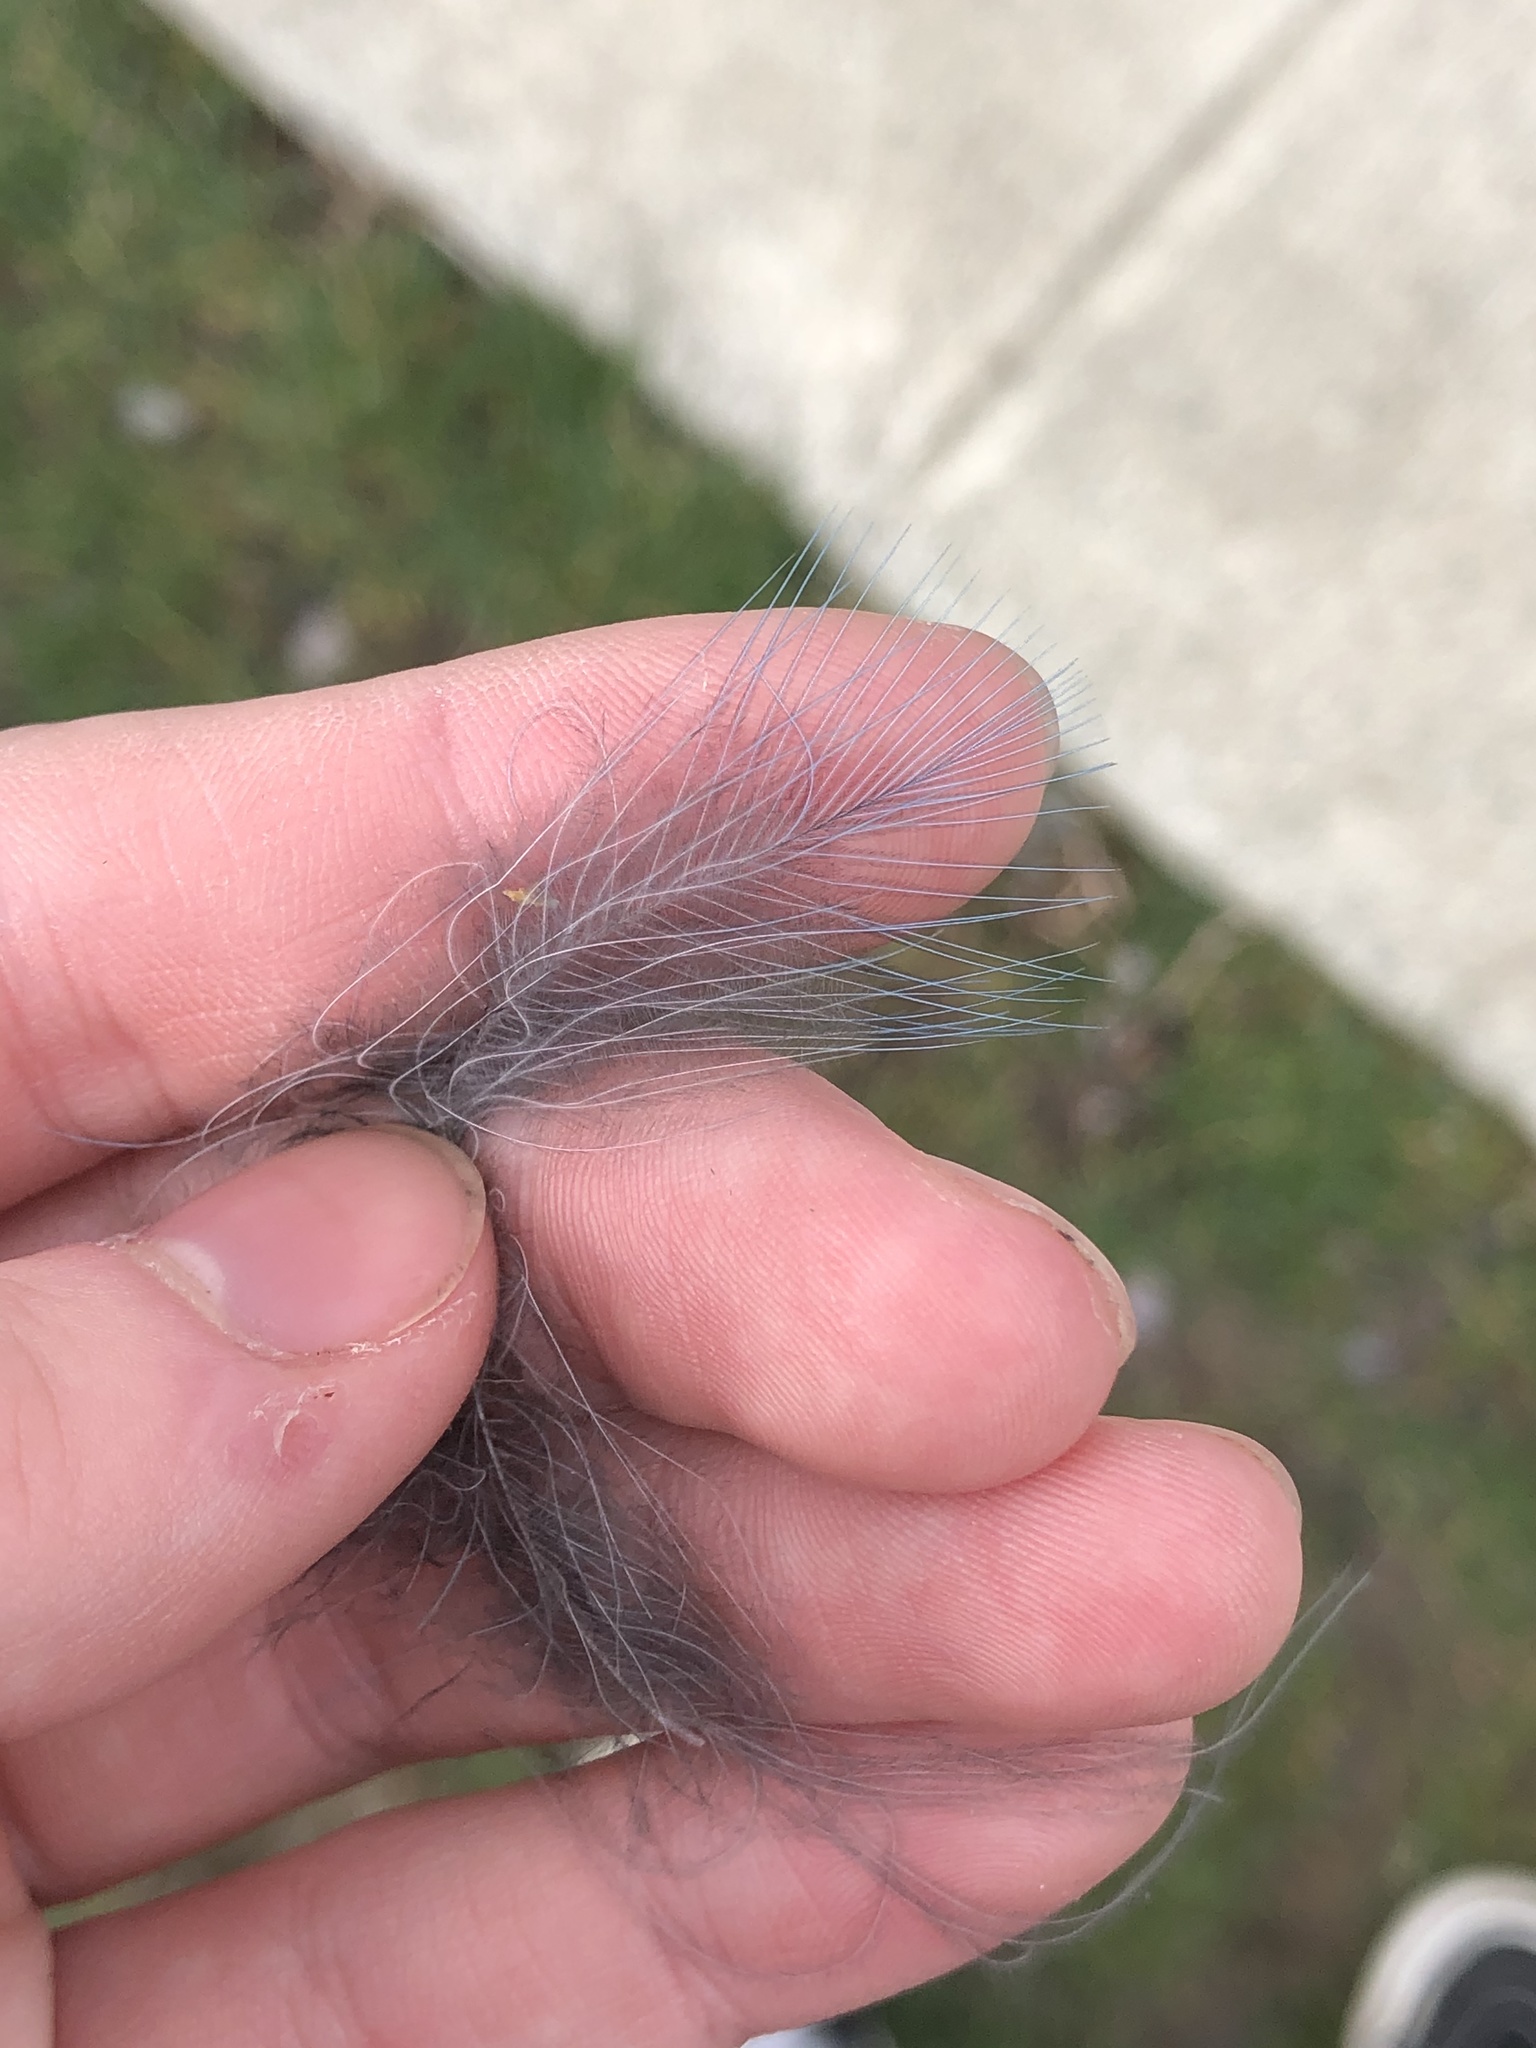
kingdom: Animalia
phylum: Chordata
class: Aves
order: Passeriformes
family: Corvidae
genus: Cyanocitta
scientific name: Cyanocitta stelleri
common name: Steller's jay
